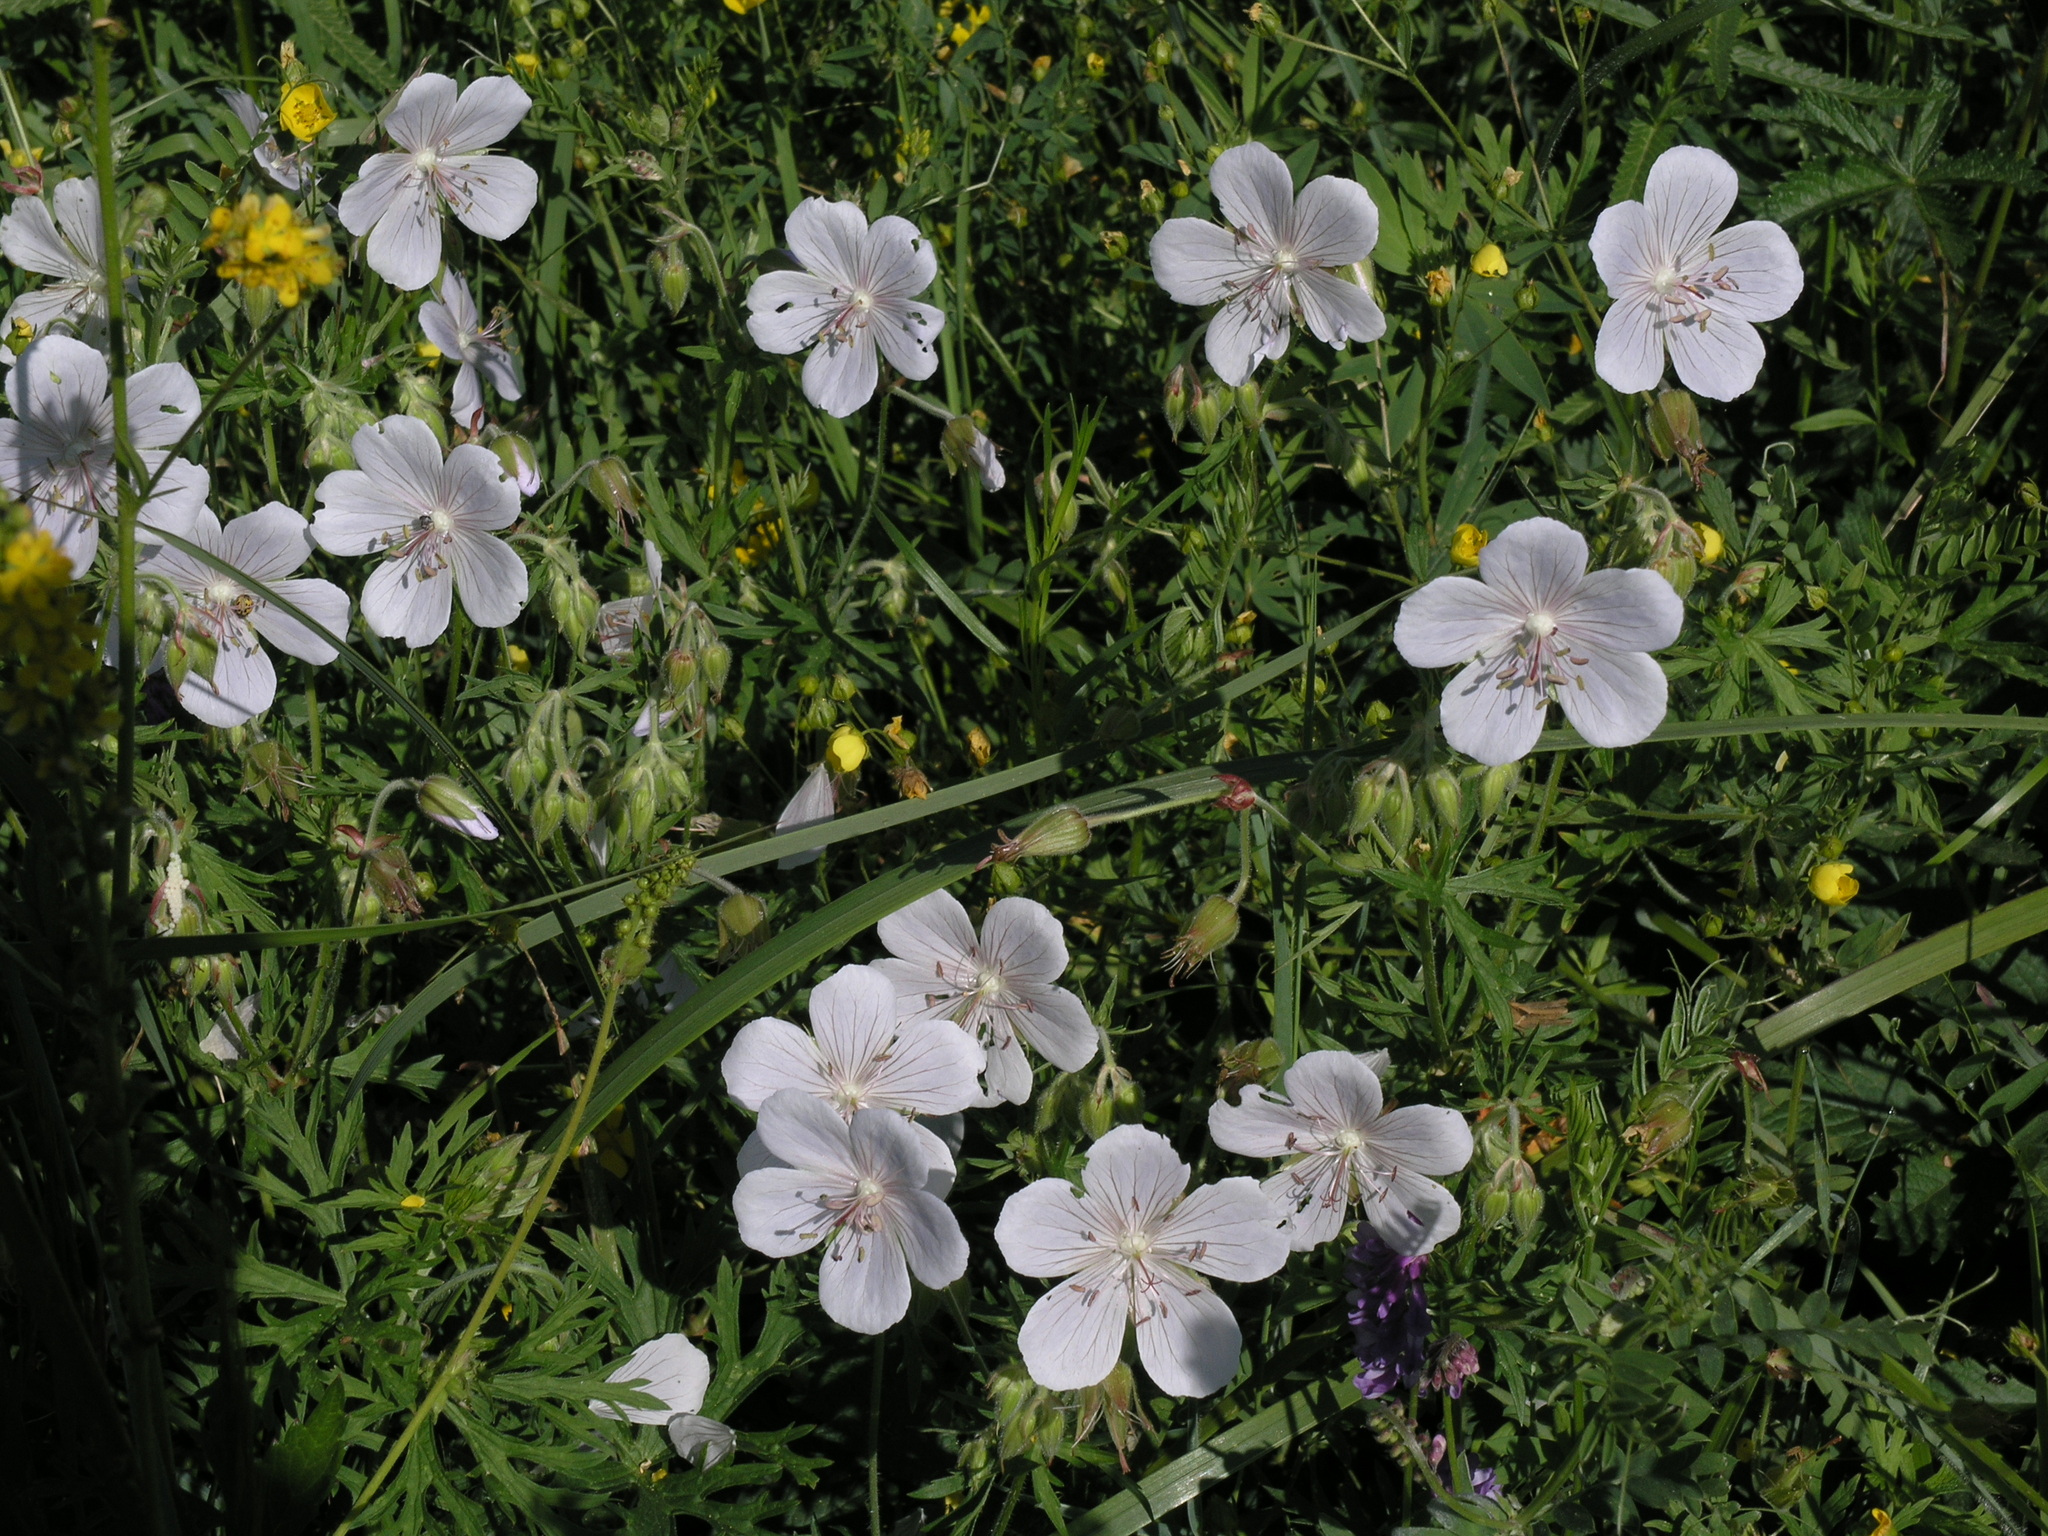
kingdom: Plantae
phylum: Tracheophyta
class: Magnoliopsida
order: Geraniales
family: Geraniaceae
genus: Geranium
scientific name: Geranium pratense
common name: Meadow crane's-bill
